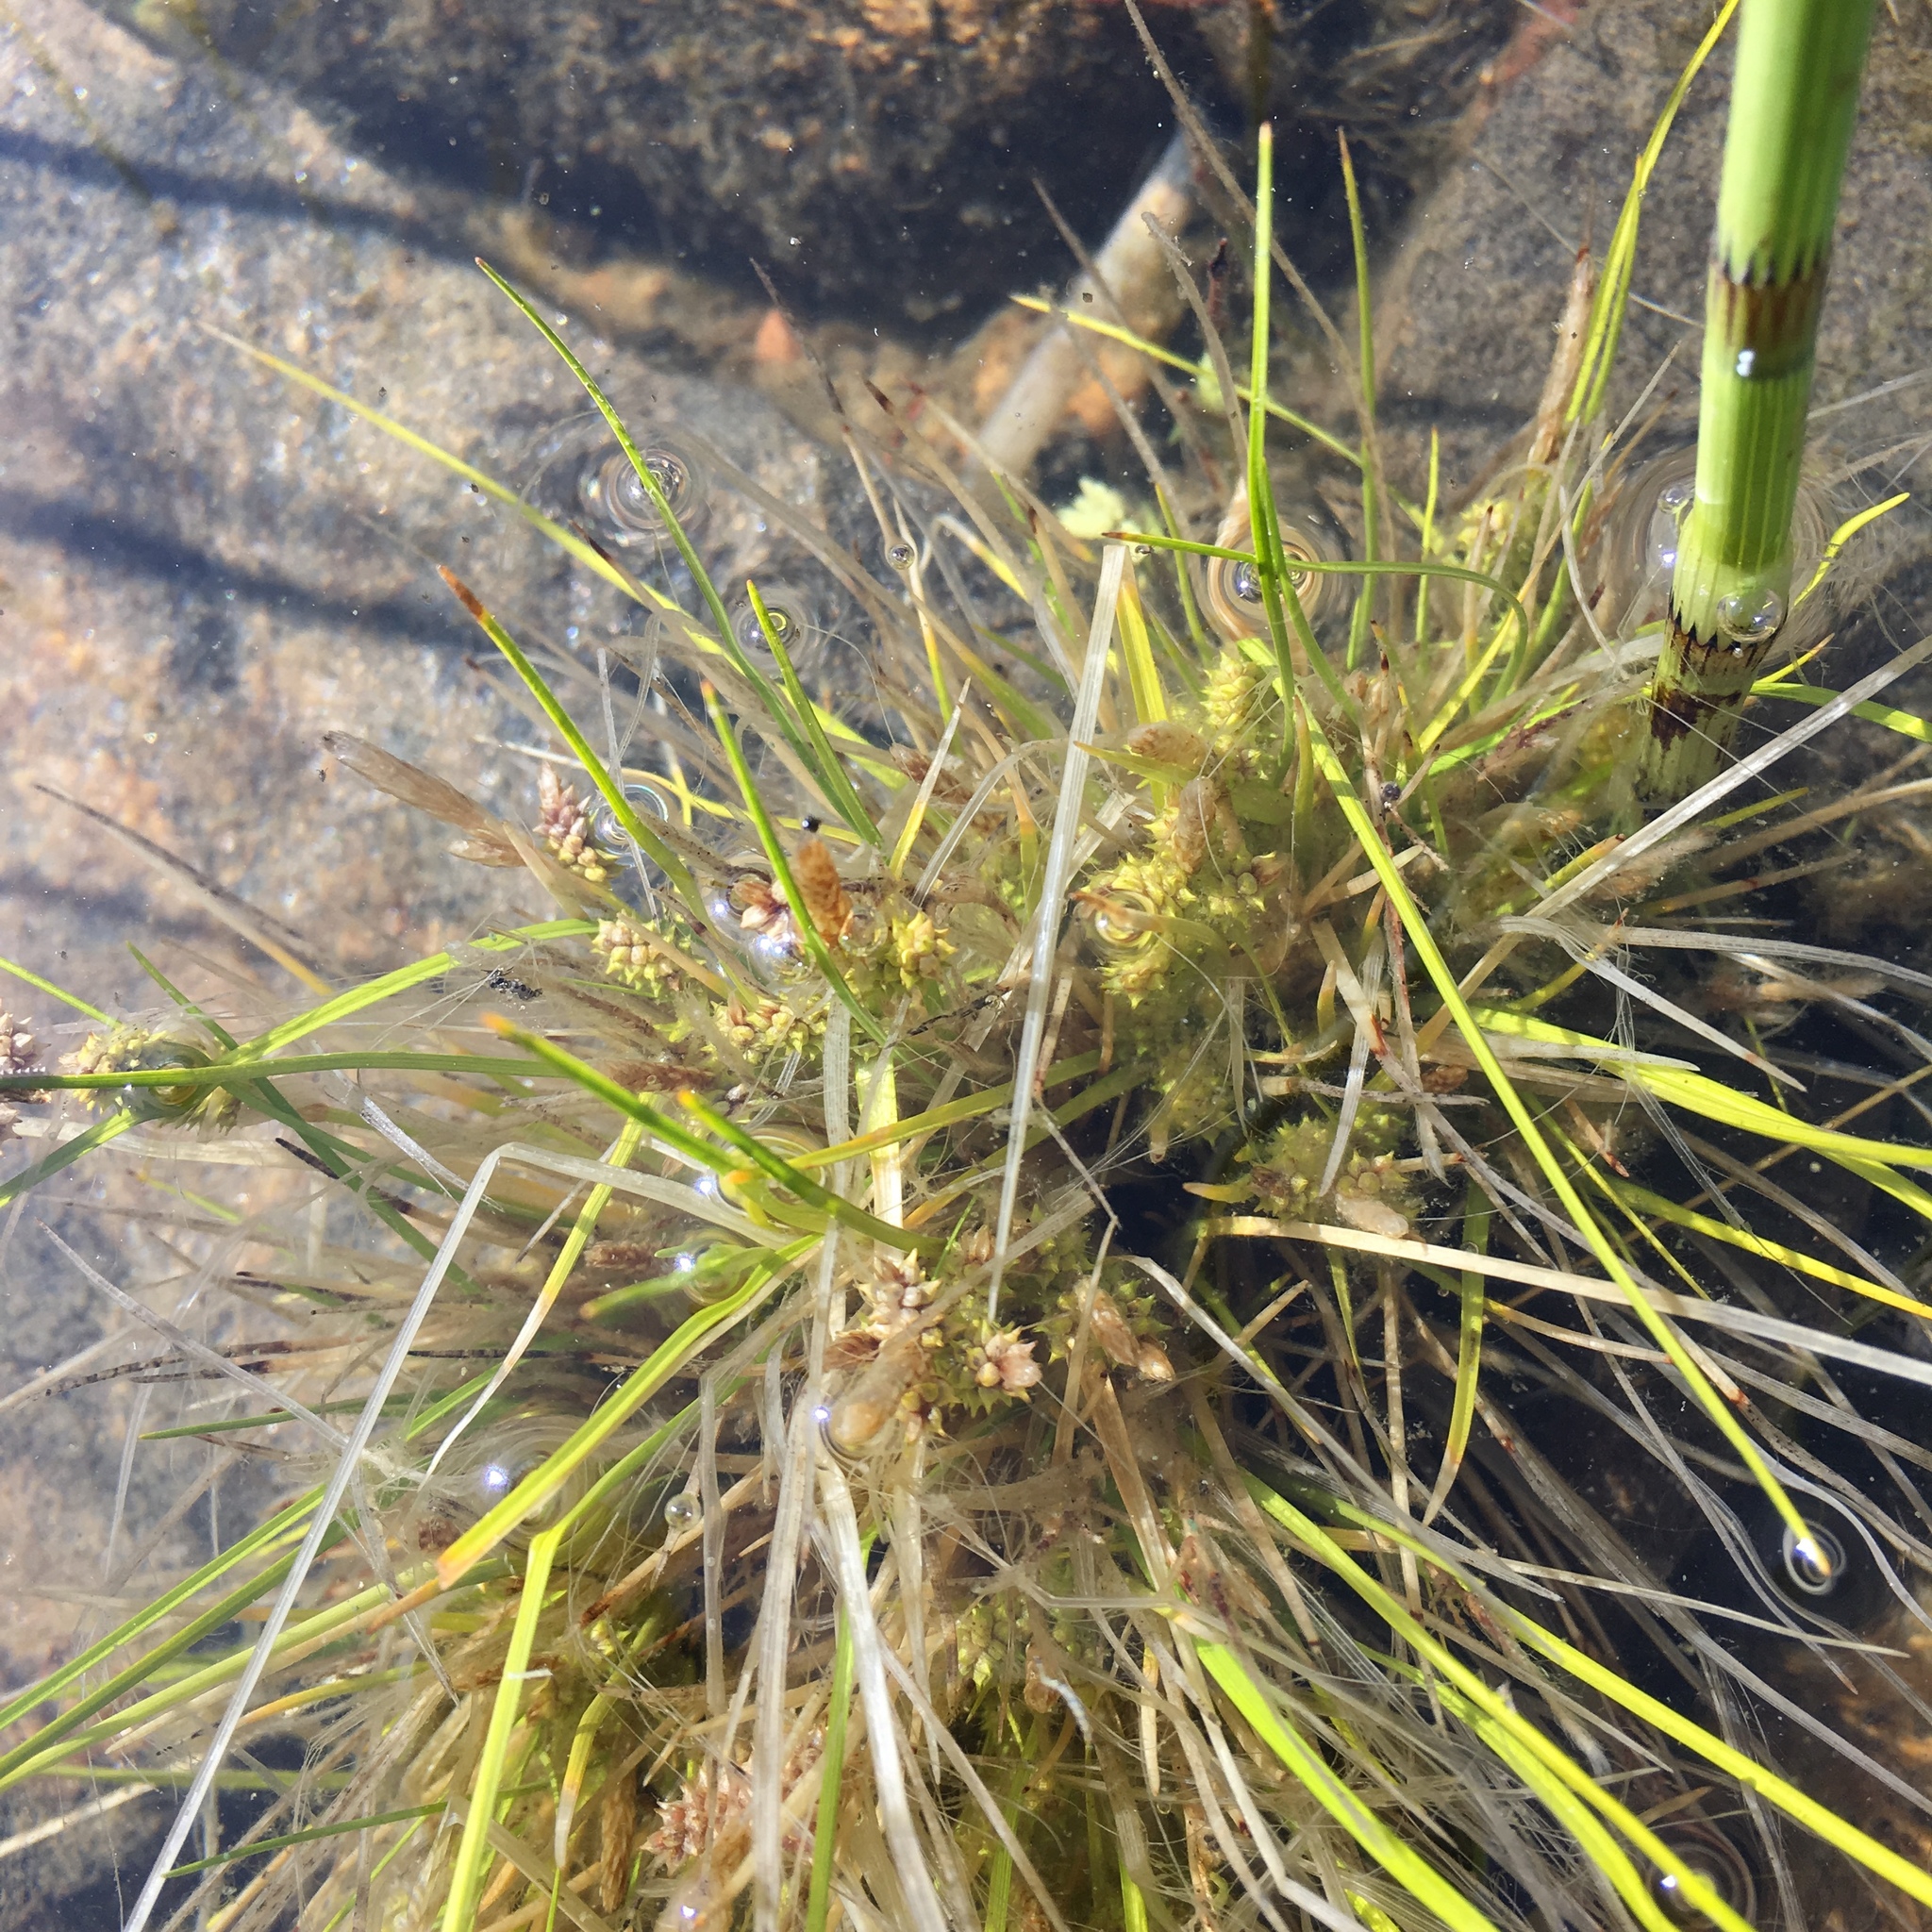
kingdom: Plantae
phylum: Tracheophyta
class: Liliopsida
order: Poales
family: Cyperaceae
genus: Carex
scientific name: Carex
